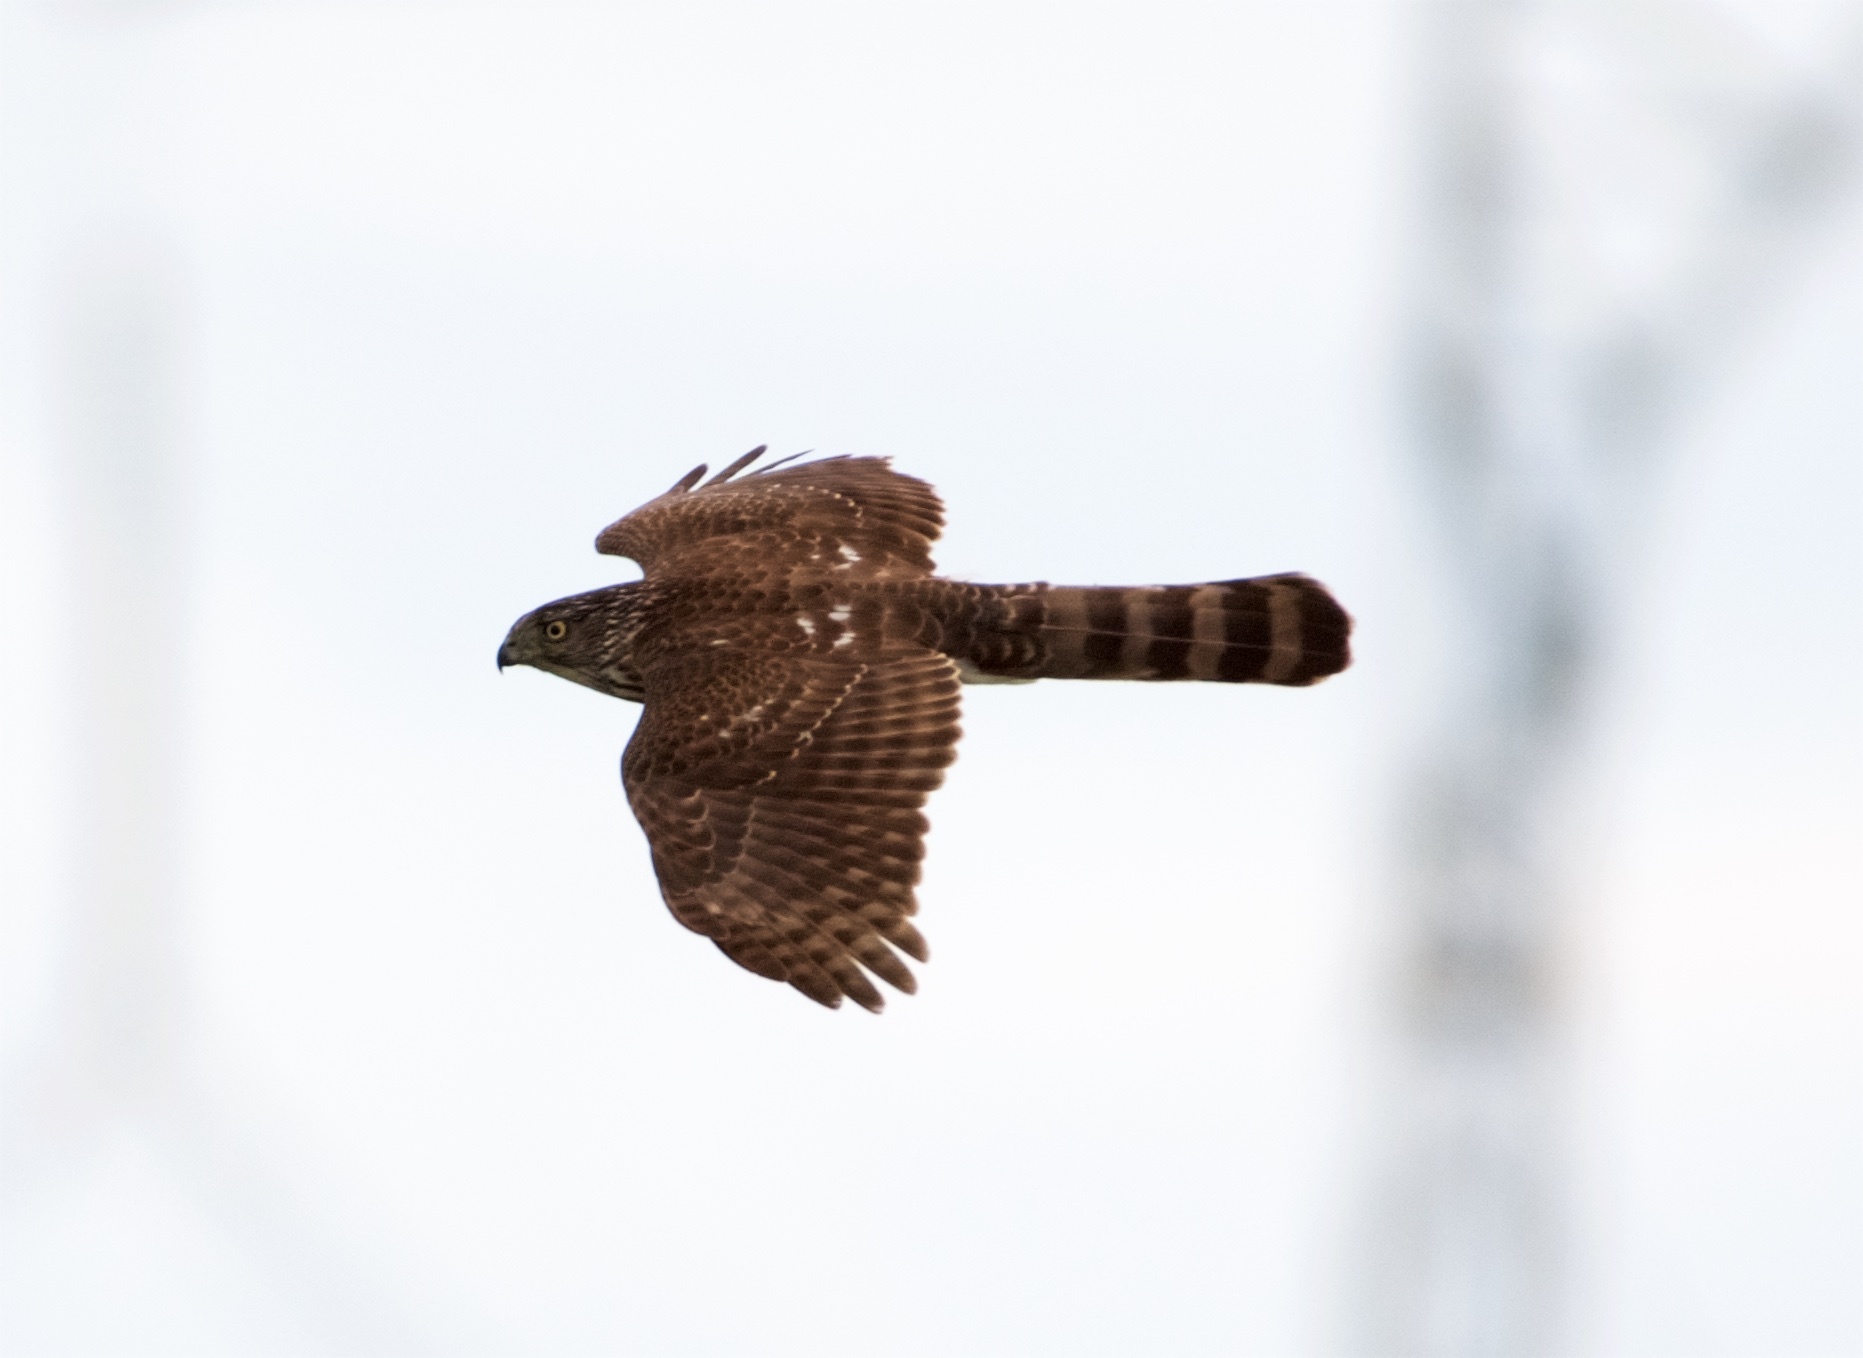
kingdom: Animalia
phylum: Chordata
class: Aves
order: Accipitriformes
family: Accipitridae
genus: Accipiter
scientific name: Accipiter cooperii
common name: Cooper's hawk
